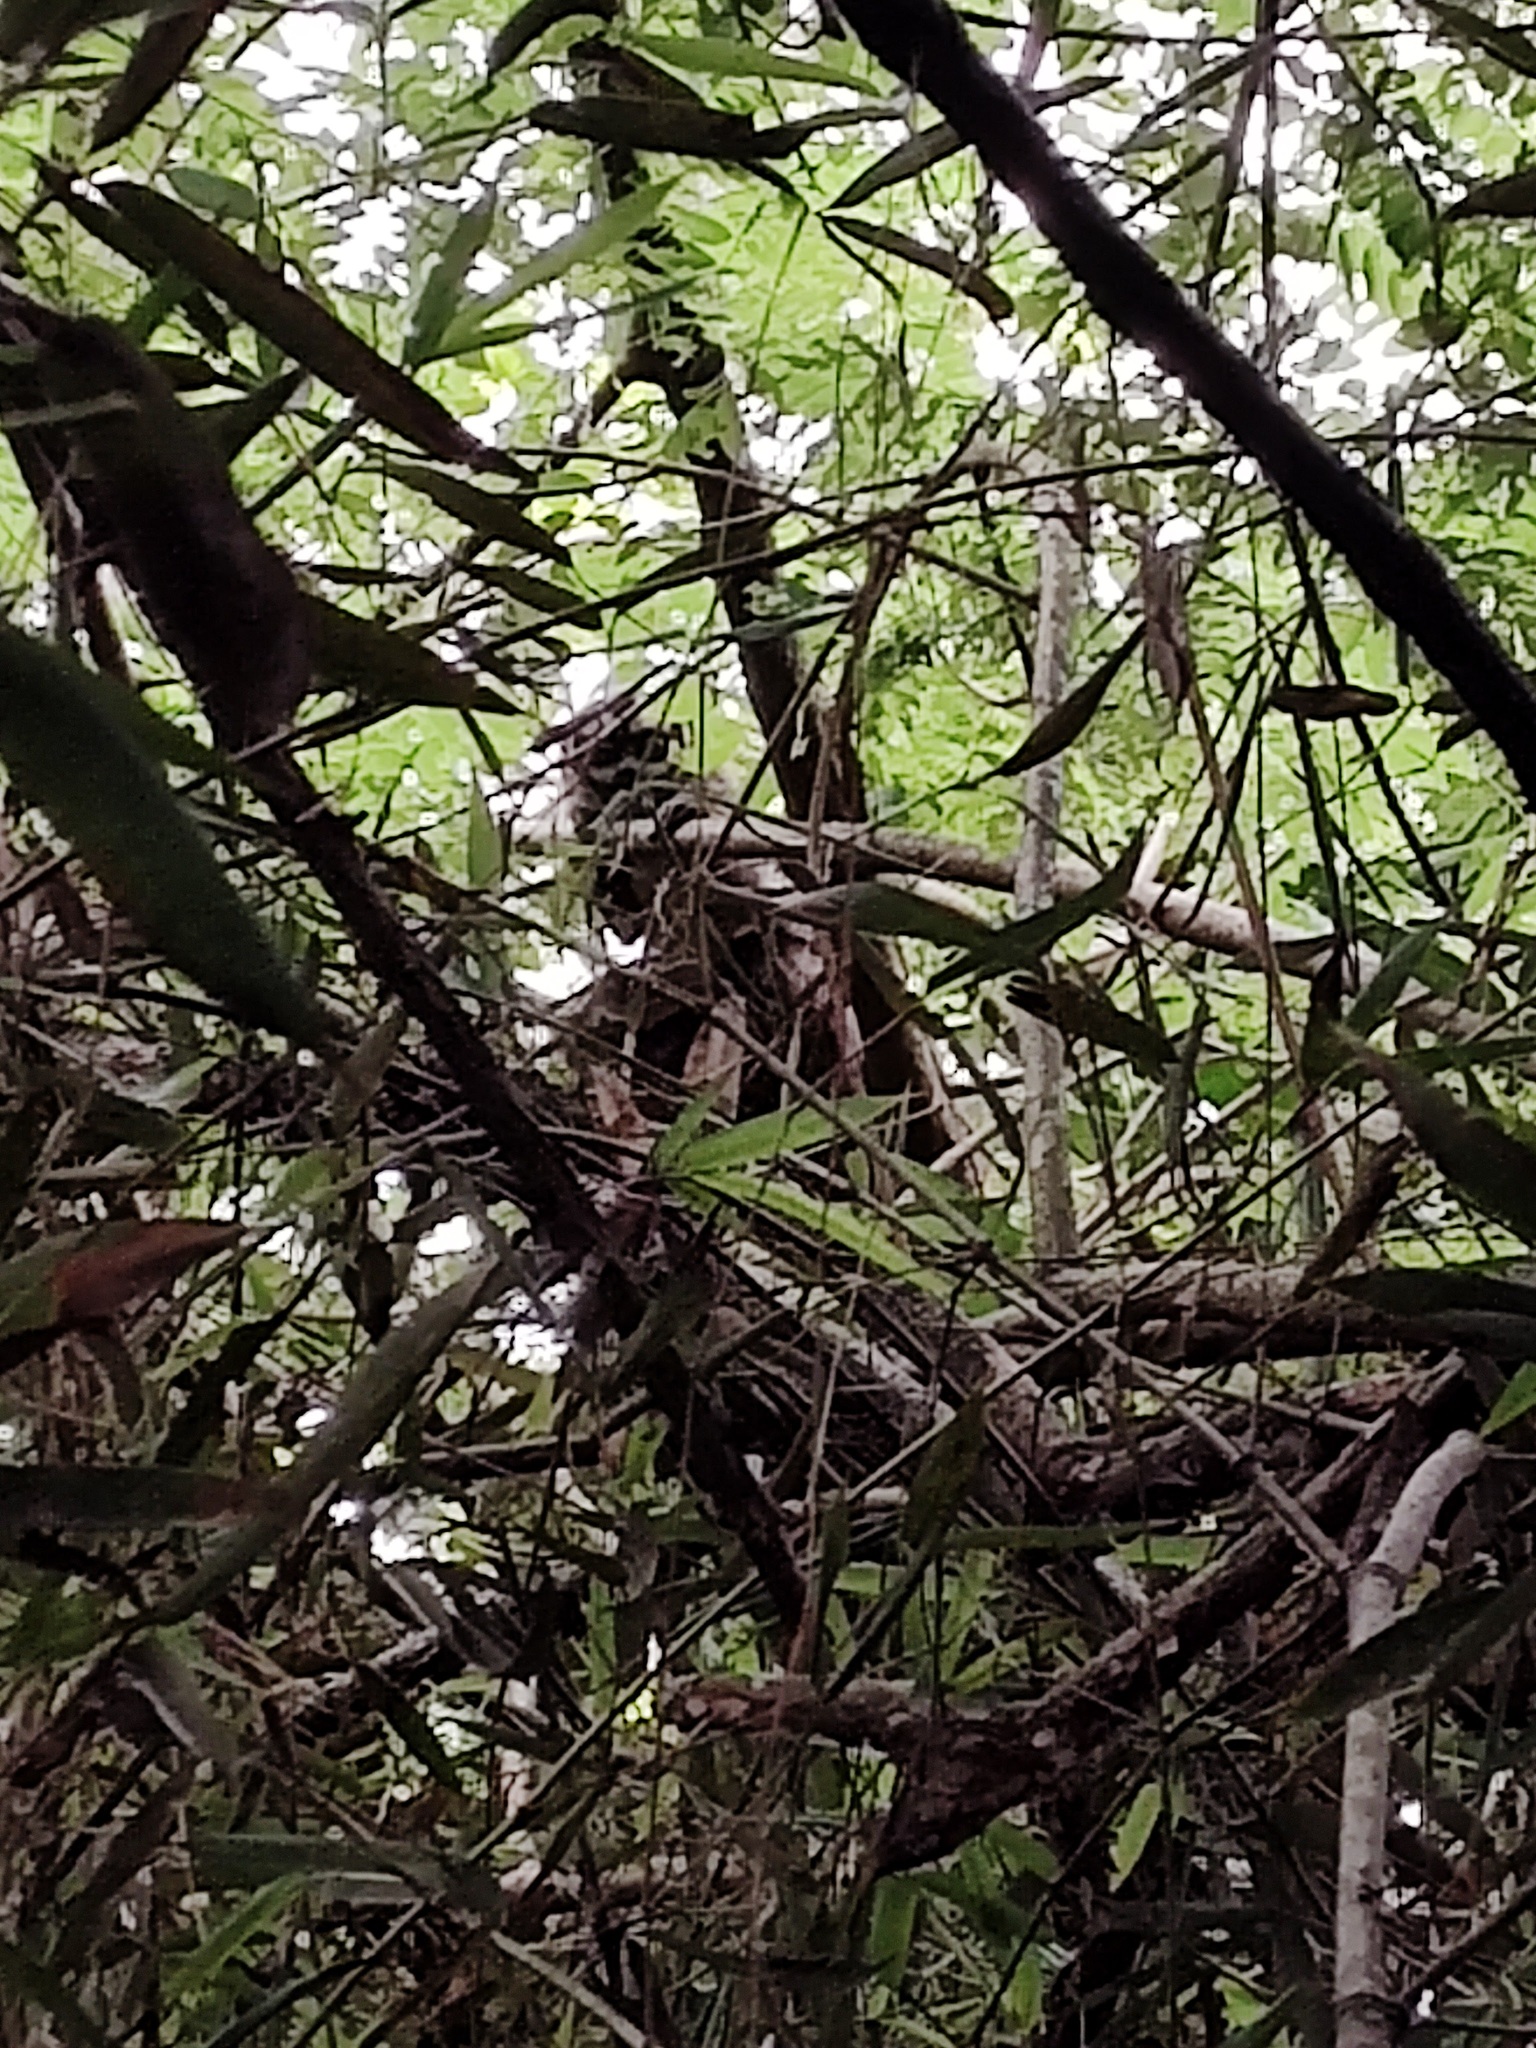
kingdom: Animalia
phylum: Chordata
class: Mammalia
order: Primates
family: Aotidae
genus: Aotus
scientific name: Aotus brumbacki
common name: Brumback's night monkey
